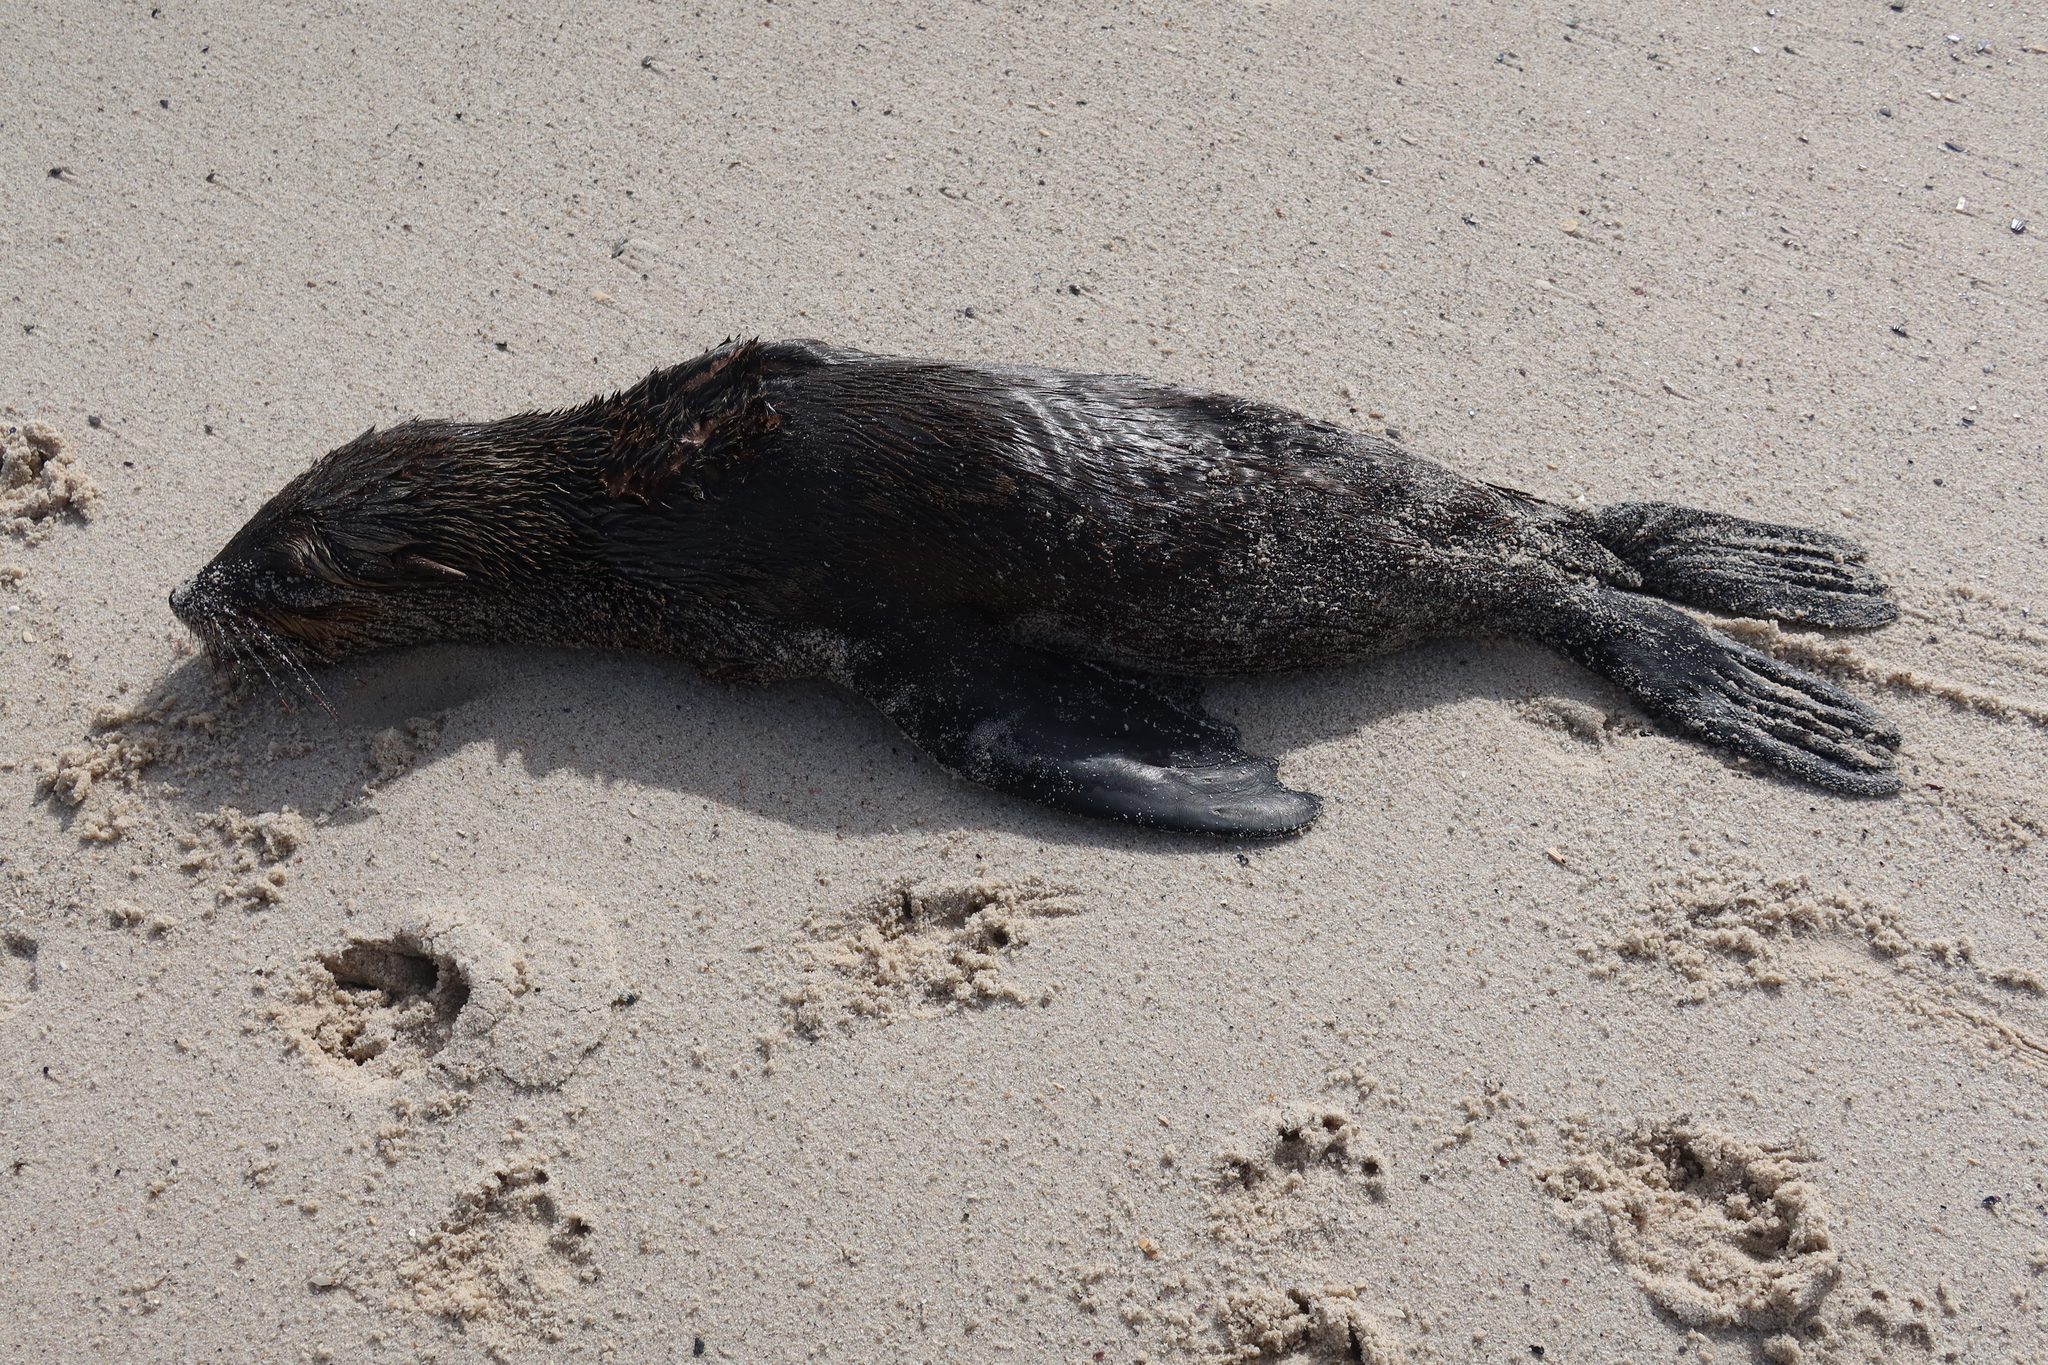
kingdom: Animalia
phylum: Chordata
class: Mammalia
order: Carnivora
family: Otariidae
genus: Arctocephalus
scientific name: Arctocephalus pusillus
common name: Brown fur seal
